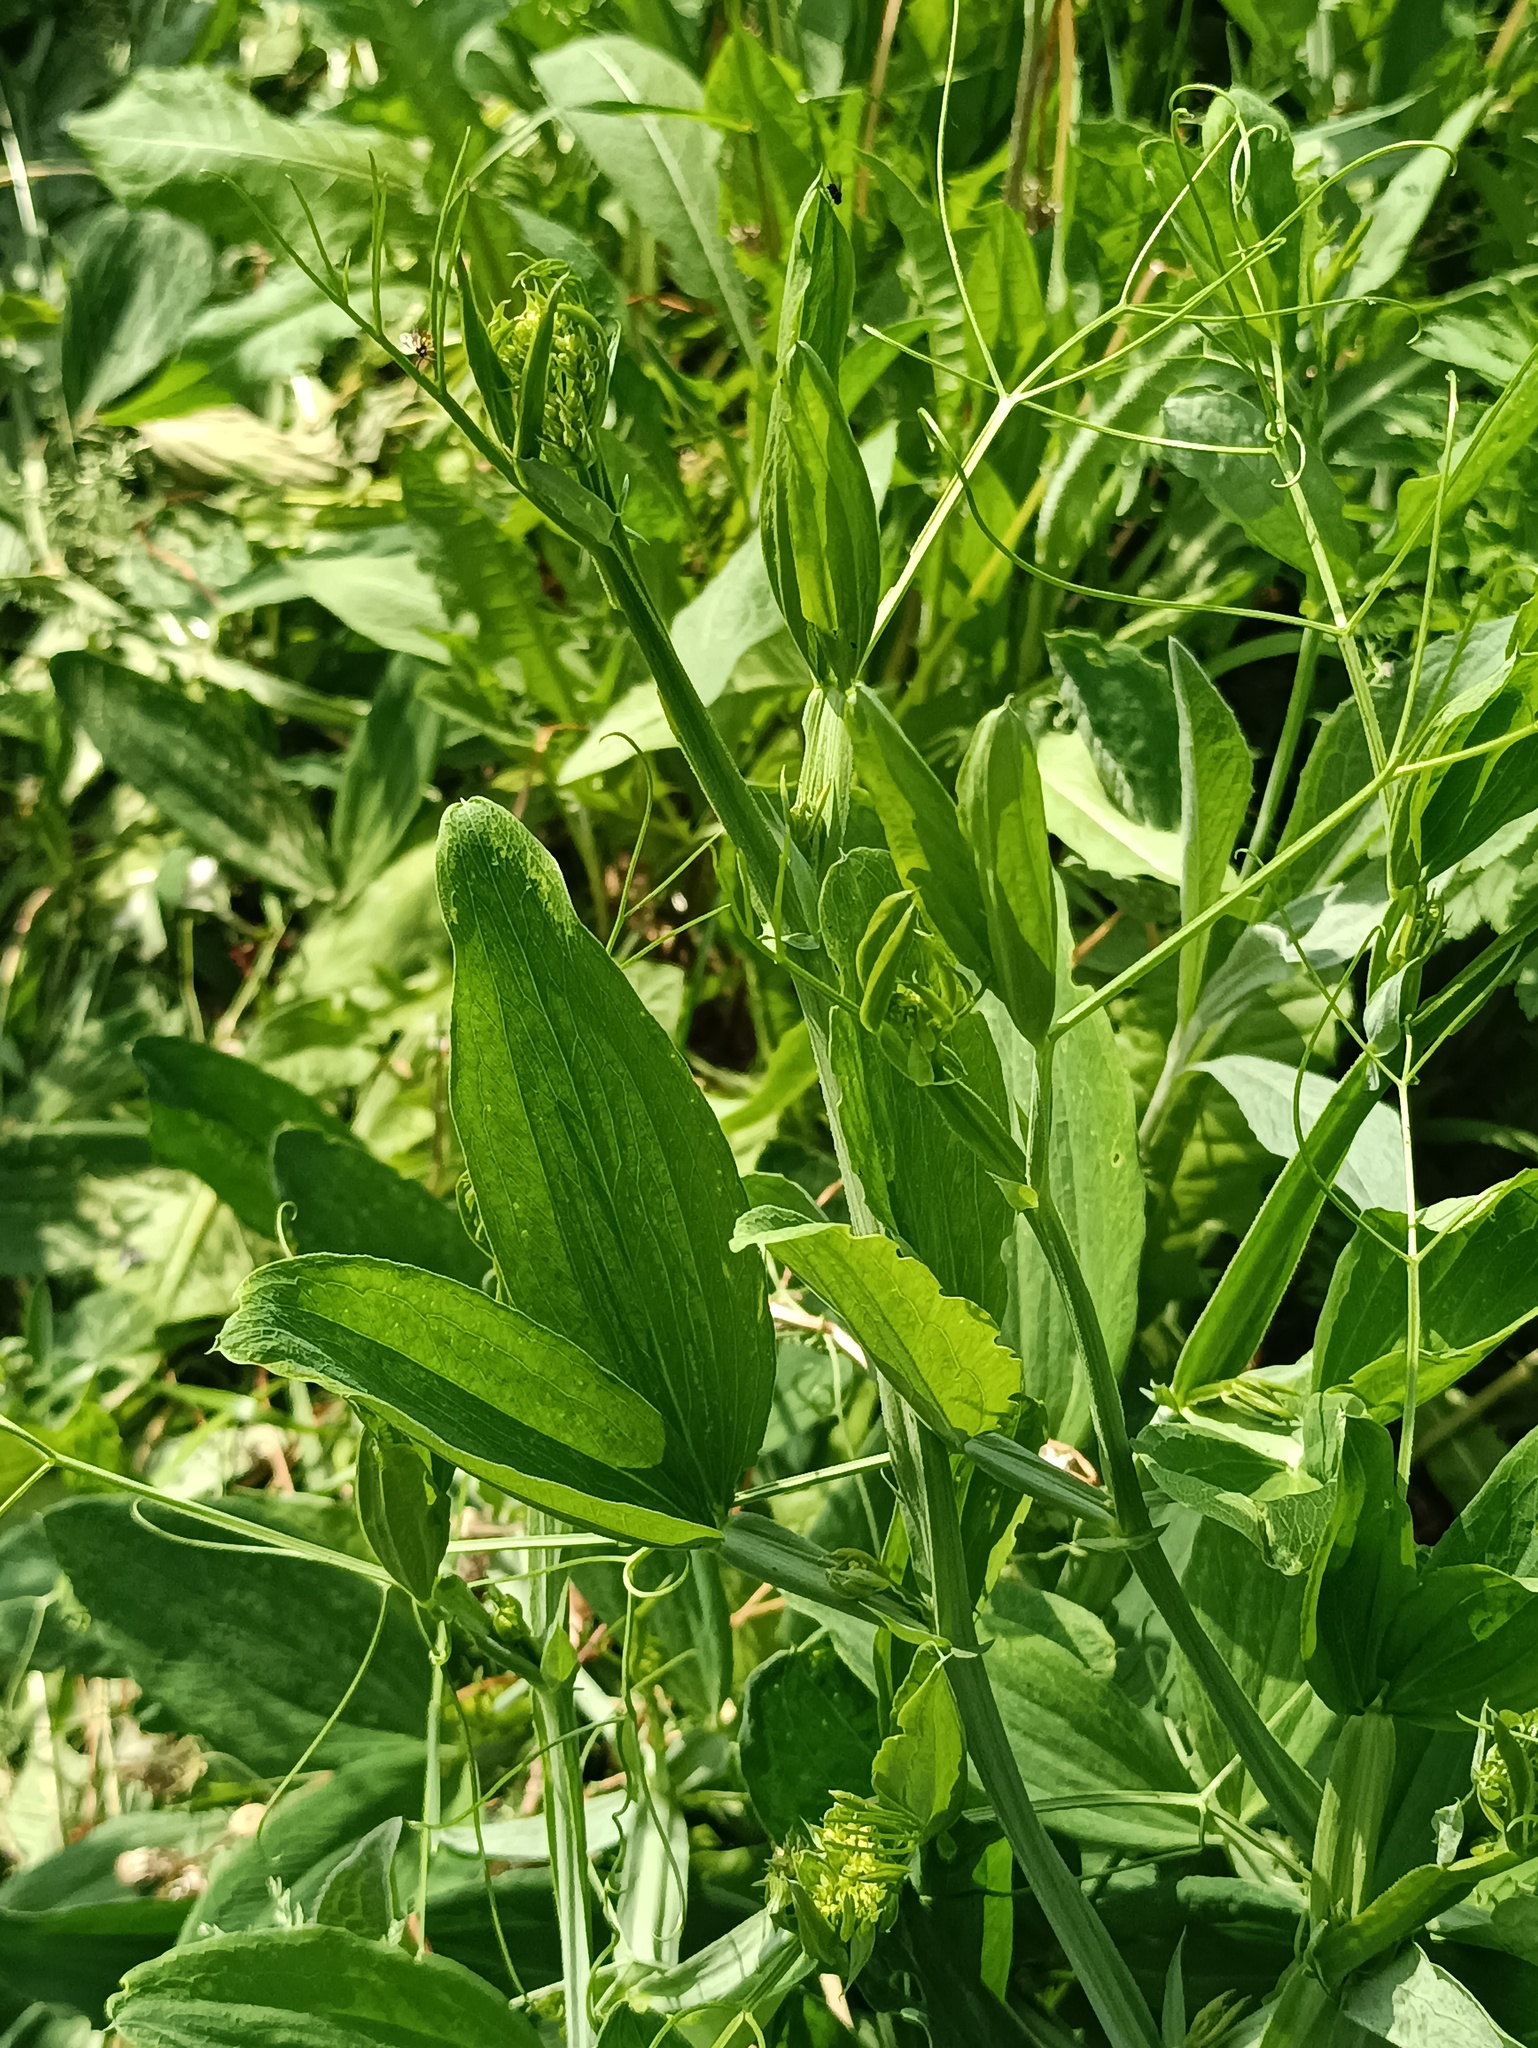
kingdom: Plantae
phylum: Tracheophyta
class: Magnoliopsida
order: Fabales
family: Fabaceae
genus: Lathyrus
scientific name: Lathyrus sylvestris
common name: Flat pea
